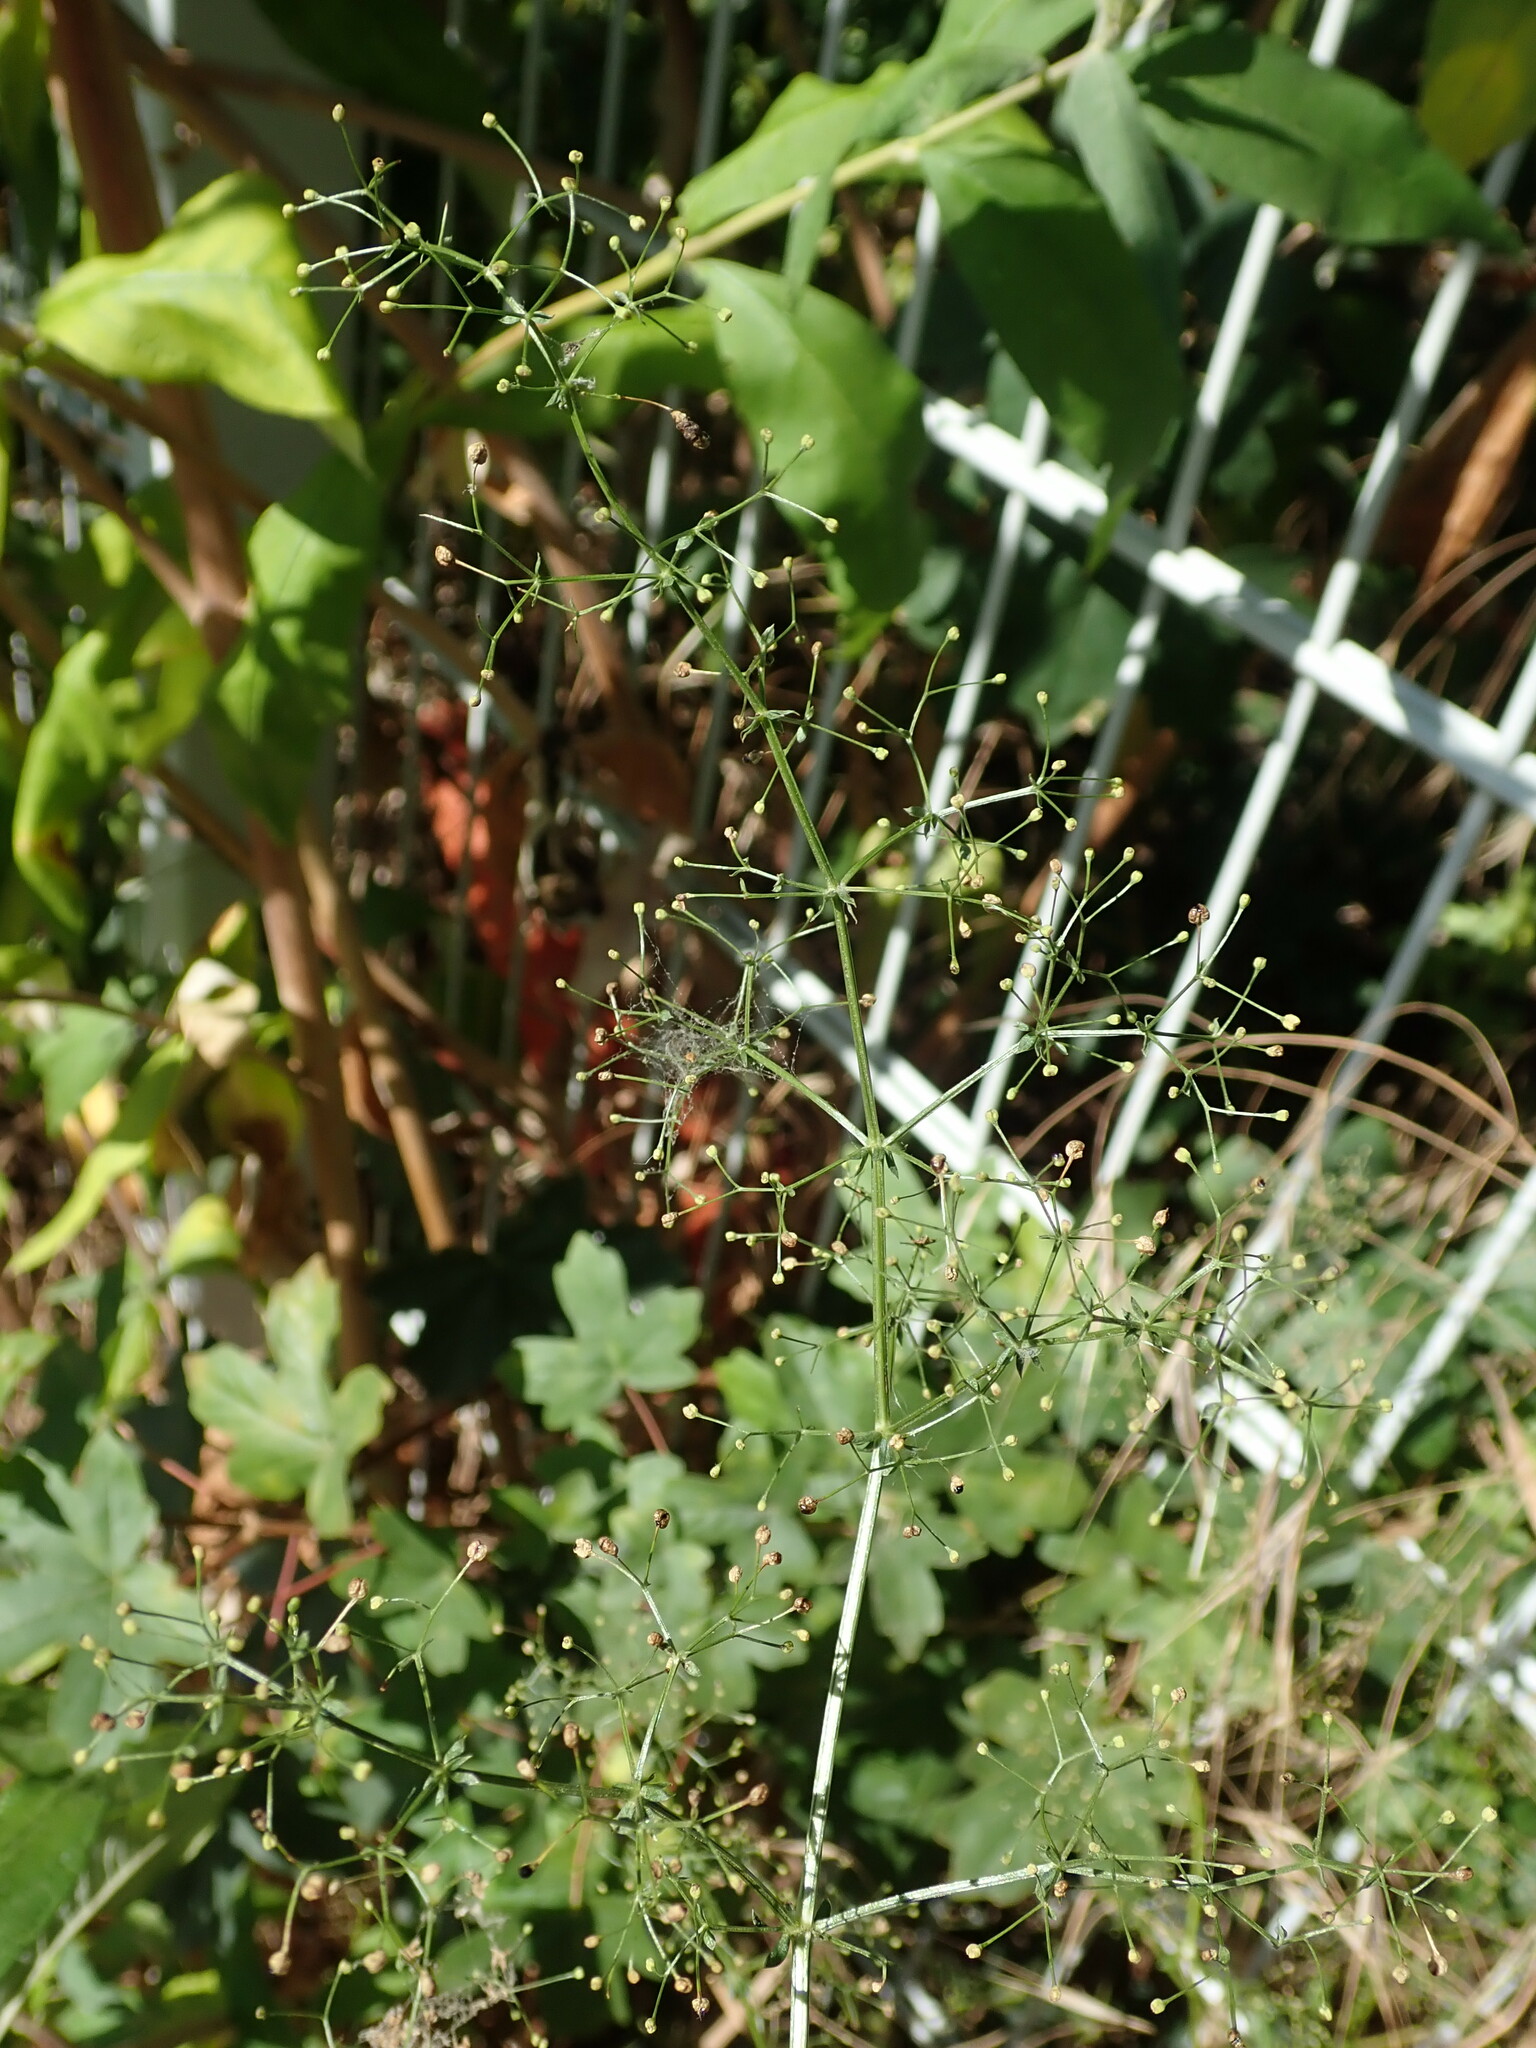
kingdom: Plantae
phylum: Tracheophyta
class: Magnoliopsida
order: Gentianales
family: Rubiaceae
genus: Galium
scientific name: Galium album
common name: White bedstraw
